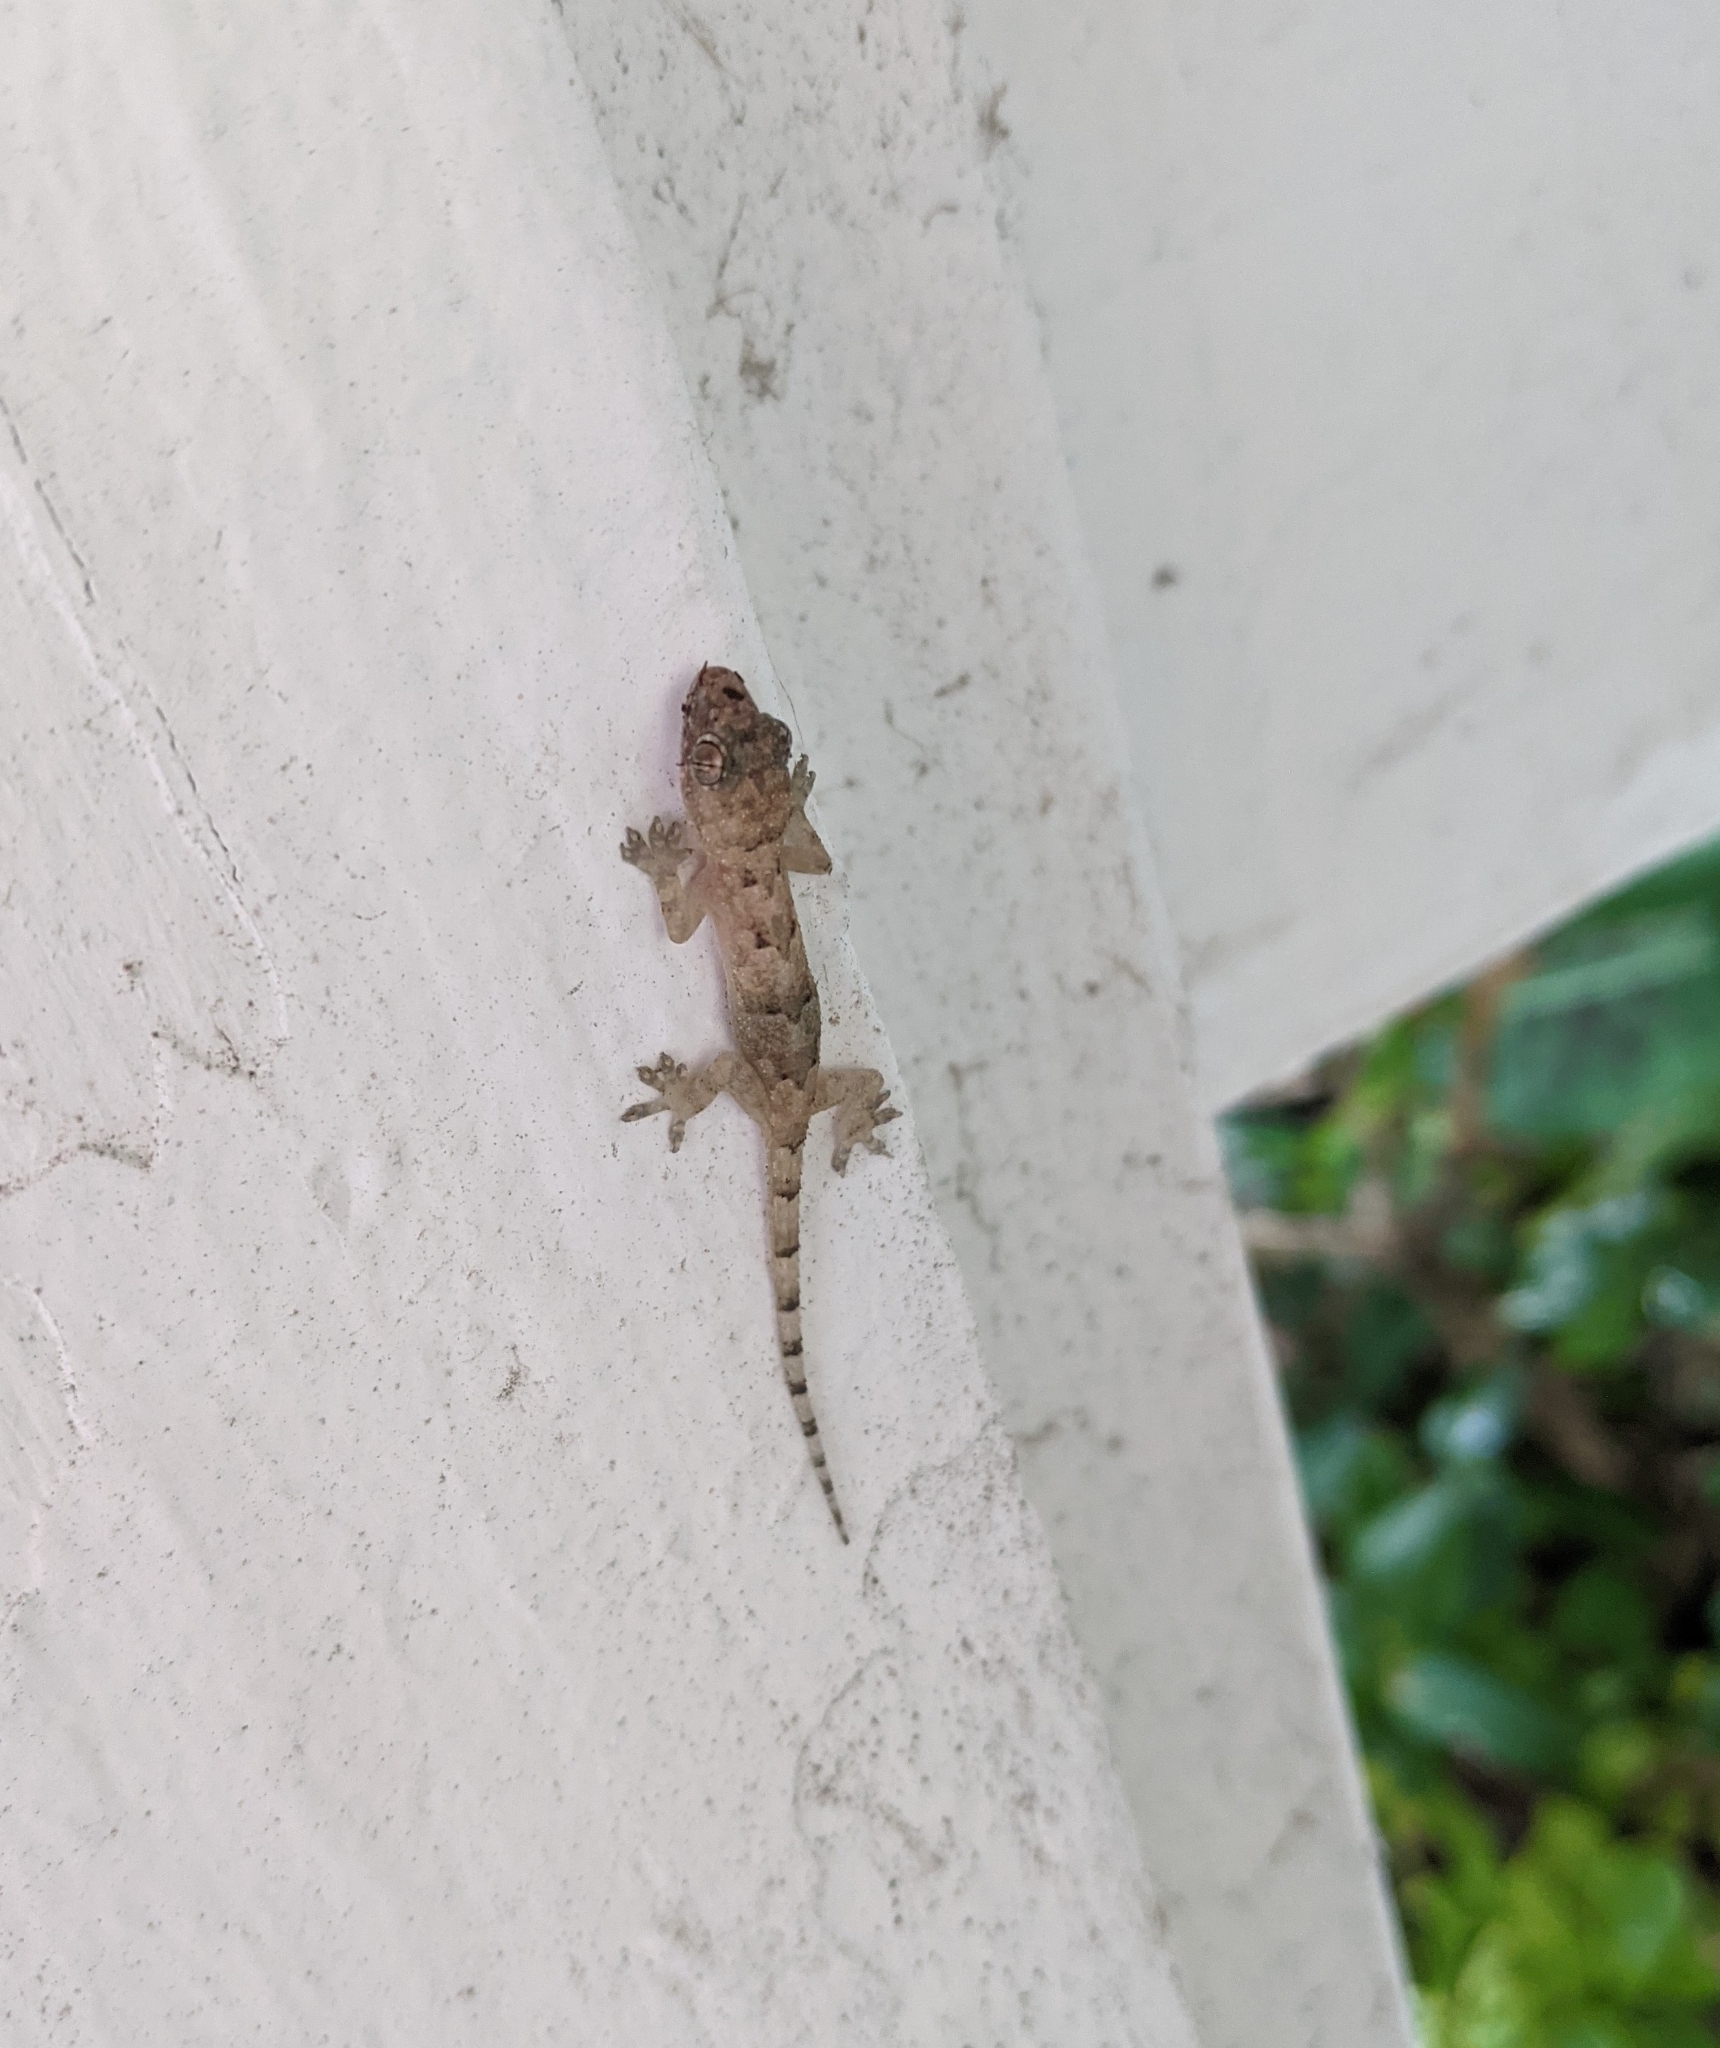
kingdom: Animalia
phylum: Chordata
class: Squamata
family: Gekkonidae
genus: Hemidactylus
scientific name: Hemidactylus mabouia
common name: House gecko
